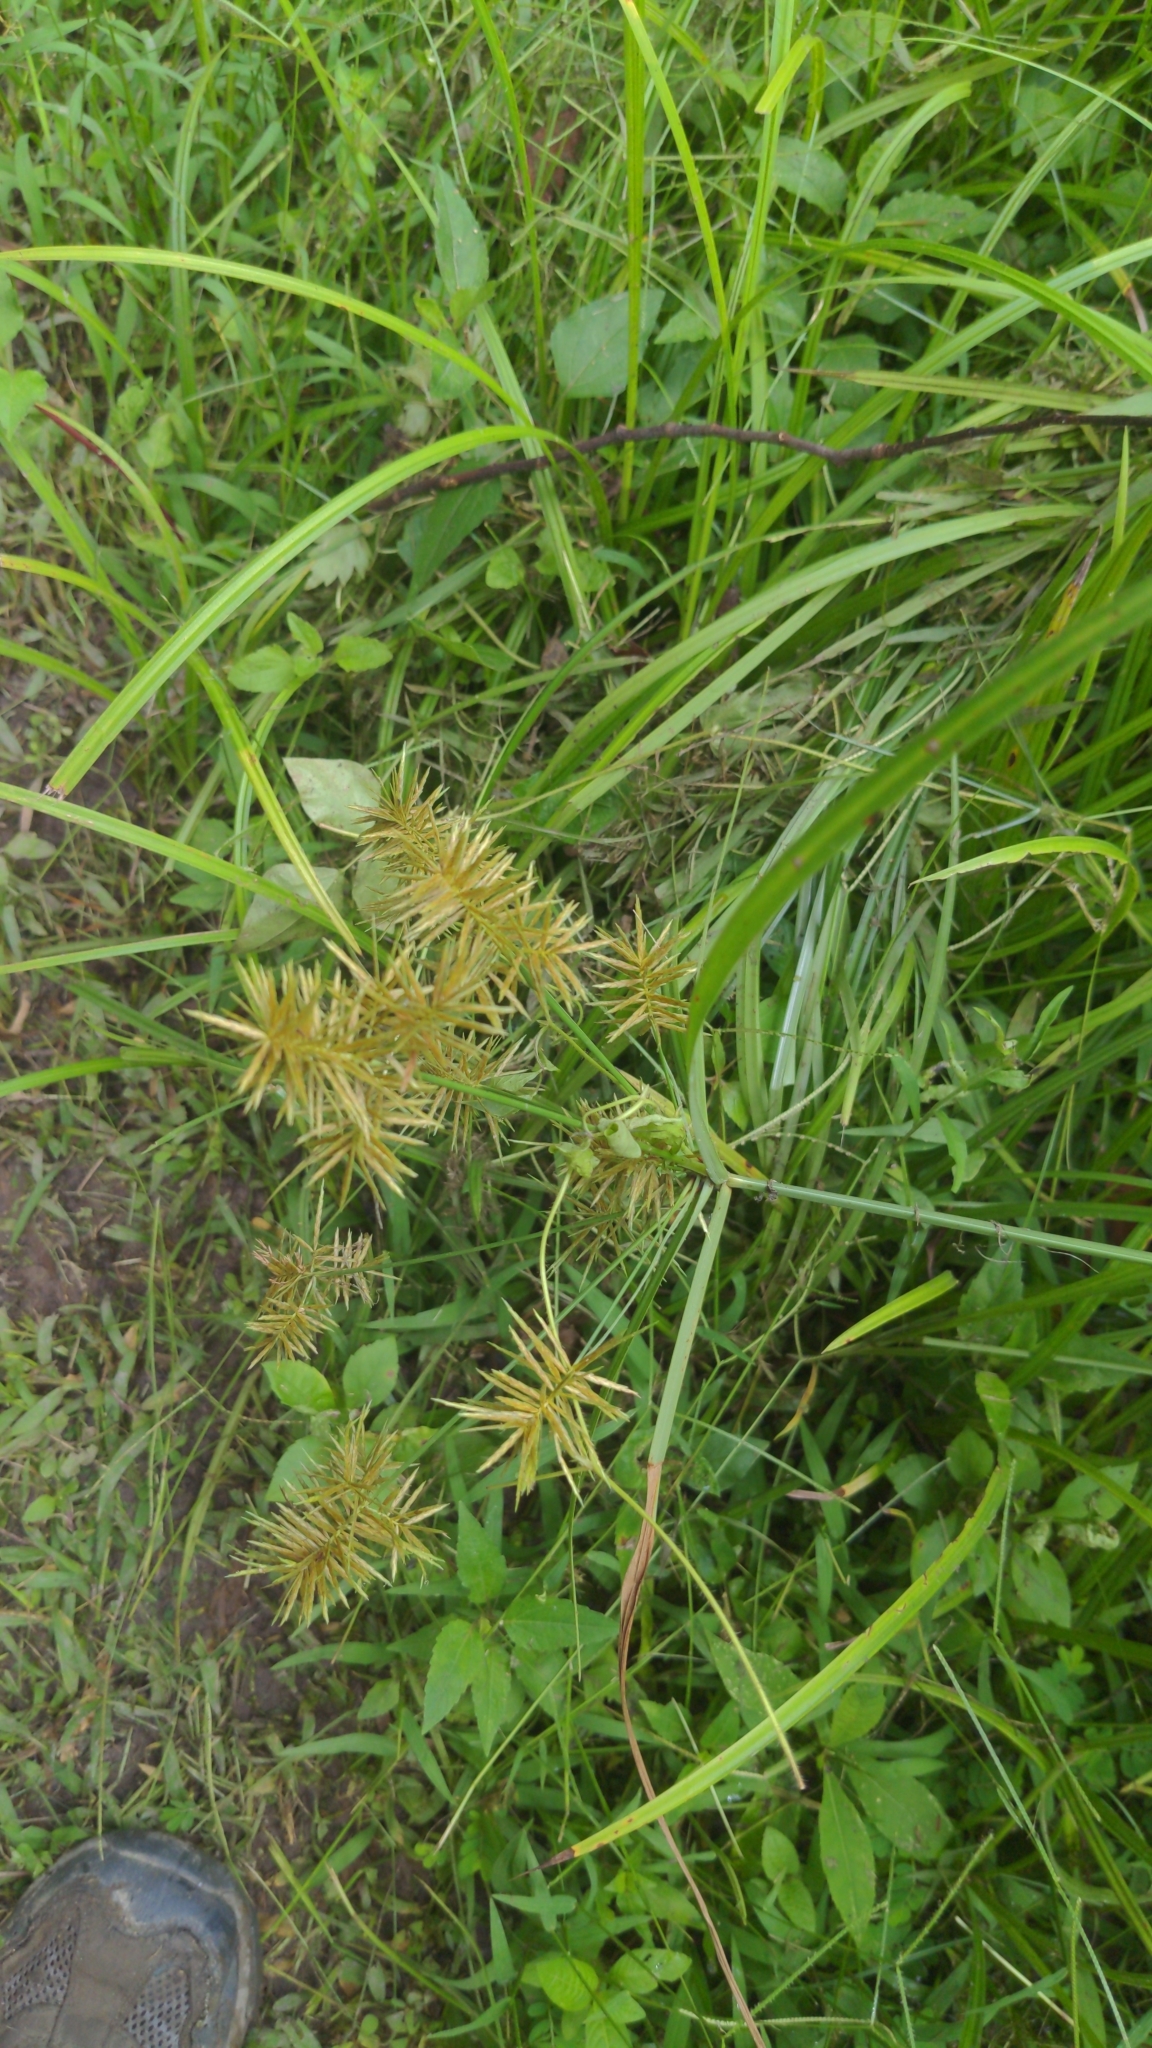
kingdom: Plantae
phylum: Tracheophyta
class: Liliopsida
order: Poales
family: Cyperaceae
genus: Cyperus
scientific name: Cyperus strigosus
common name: False nutsedge
